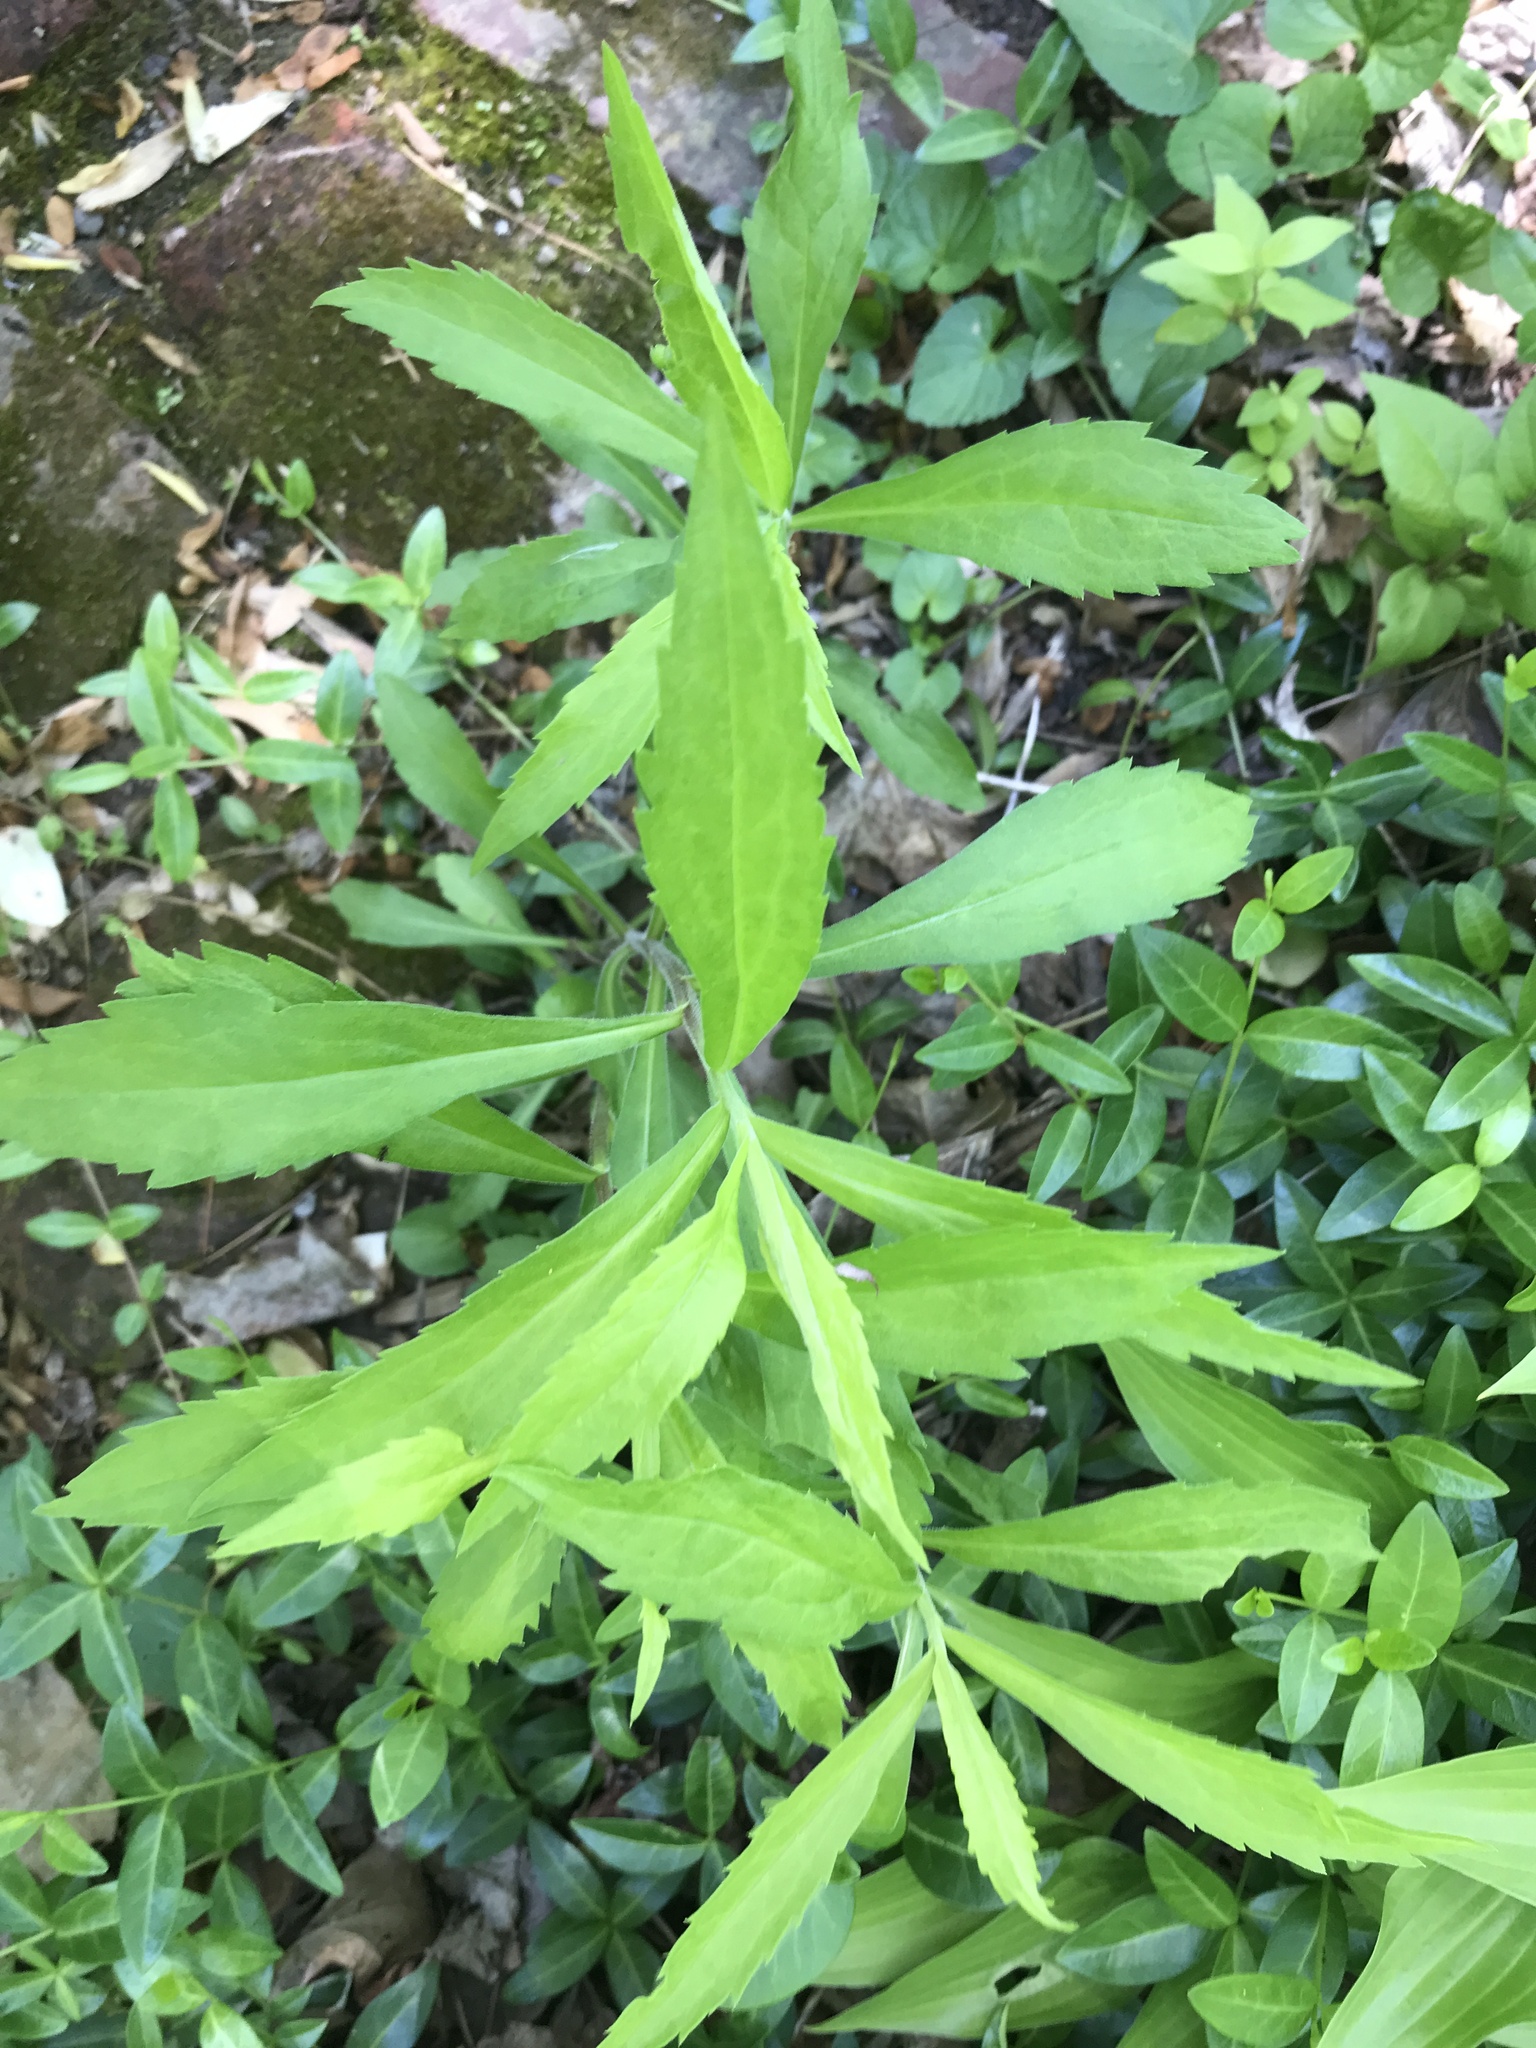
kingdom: Plantae
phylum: Tracheophyta
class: Magnoliopsida
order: Asterales
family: Asteraceae
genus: Solidago
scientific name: Solidago caesia
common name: Woodland goldenrod
